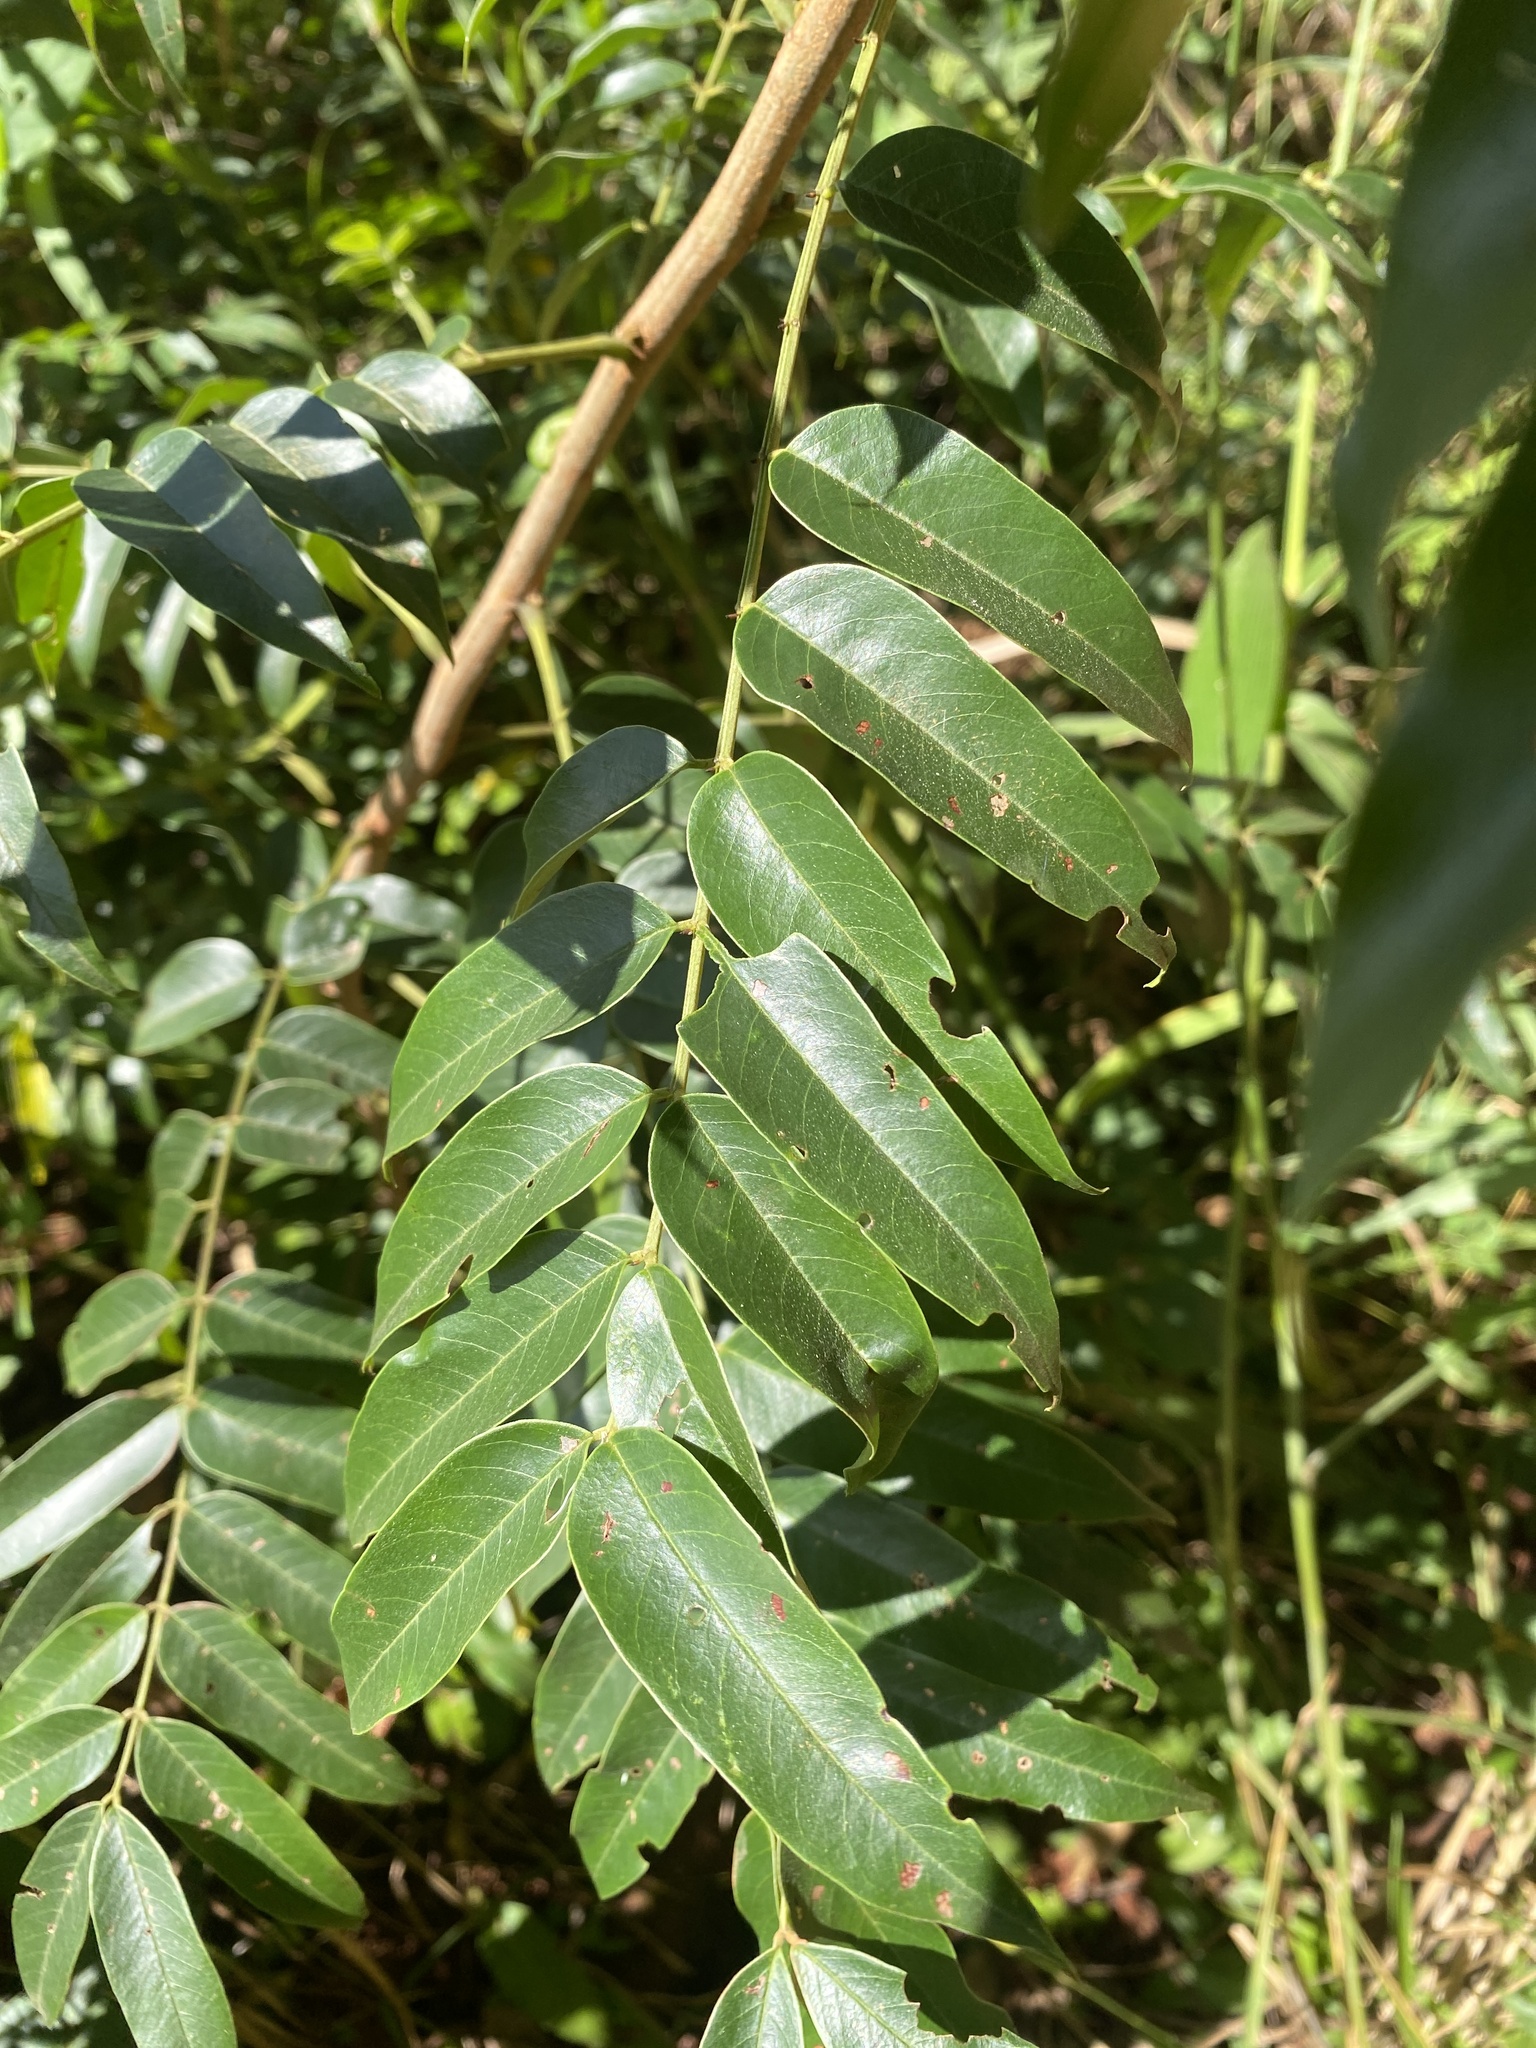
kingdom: Plantae
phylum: Tracheophyta
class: Magnoliopsida
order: Fabales
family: Fabaceae
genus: Senna
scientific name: Senna petersiana
